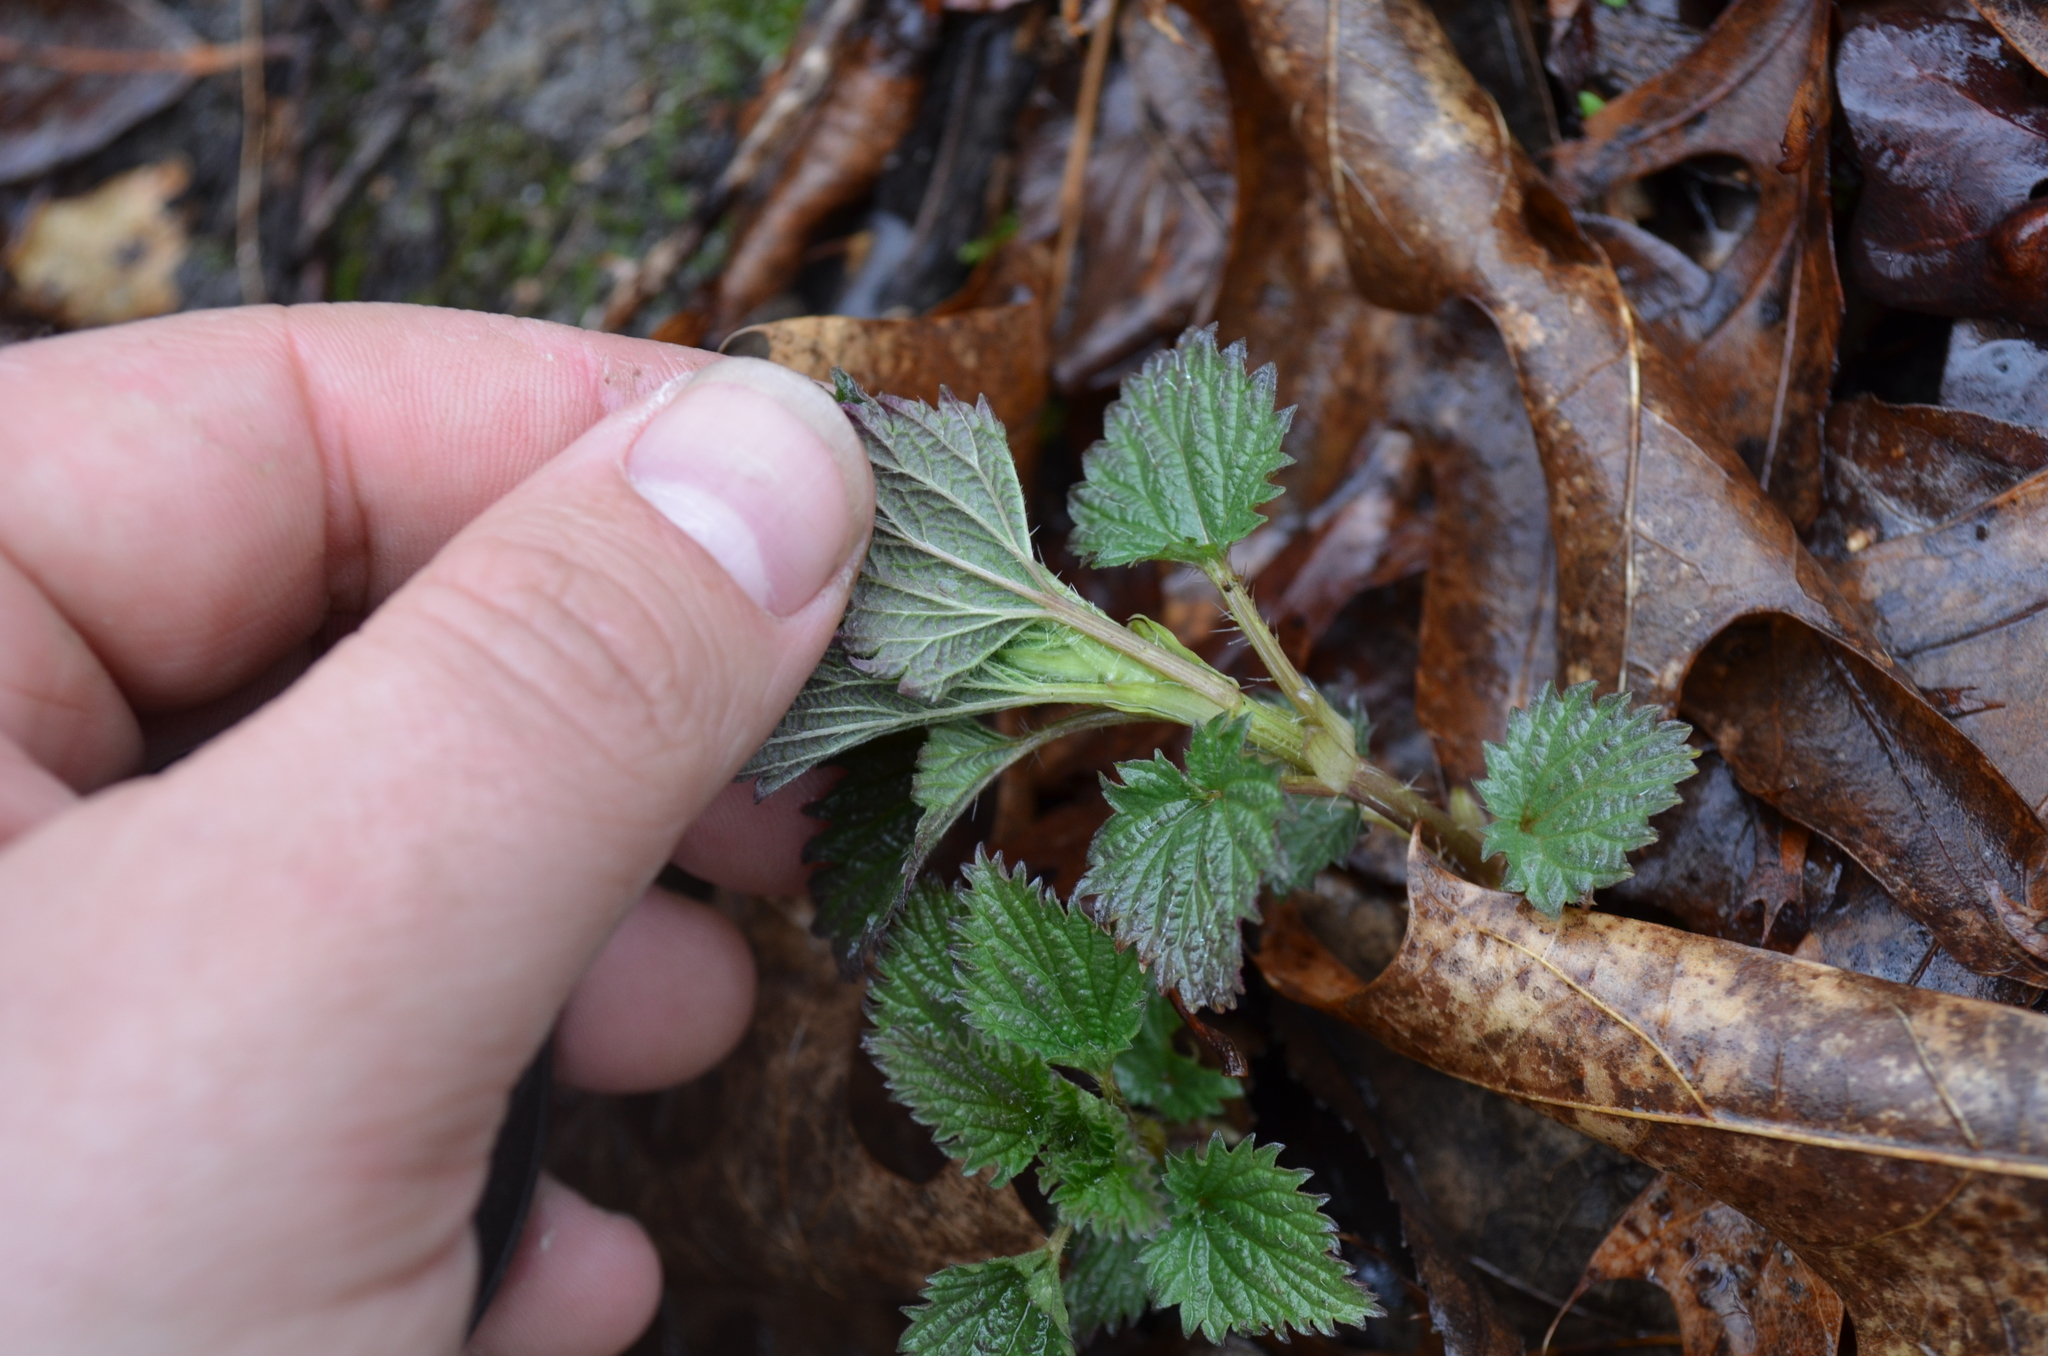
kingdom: Plantae
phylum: Tracheophyta
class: Magnoliopsida
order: Rosales
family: Urticaceae
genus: Urtica
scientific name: Urtica dioica
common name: Common nettle
